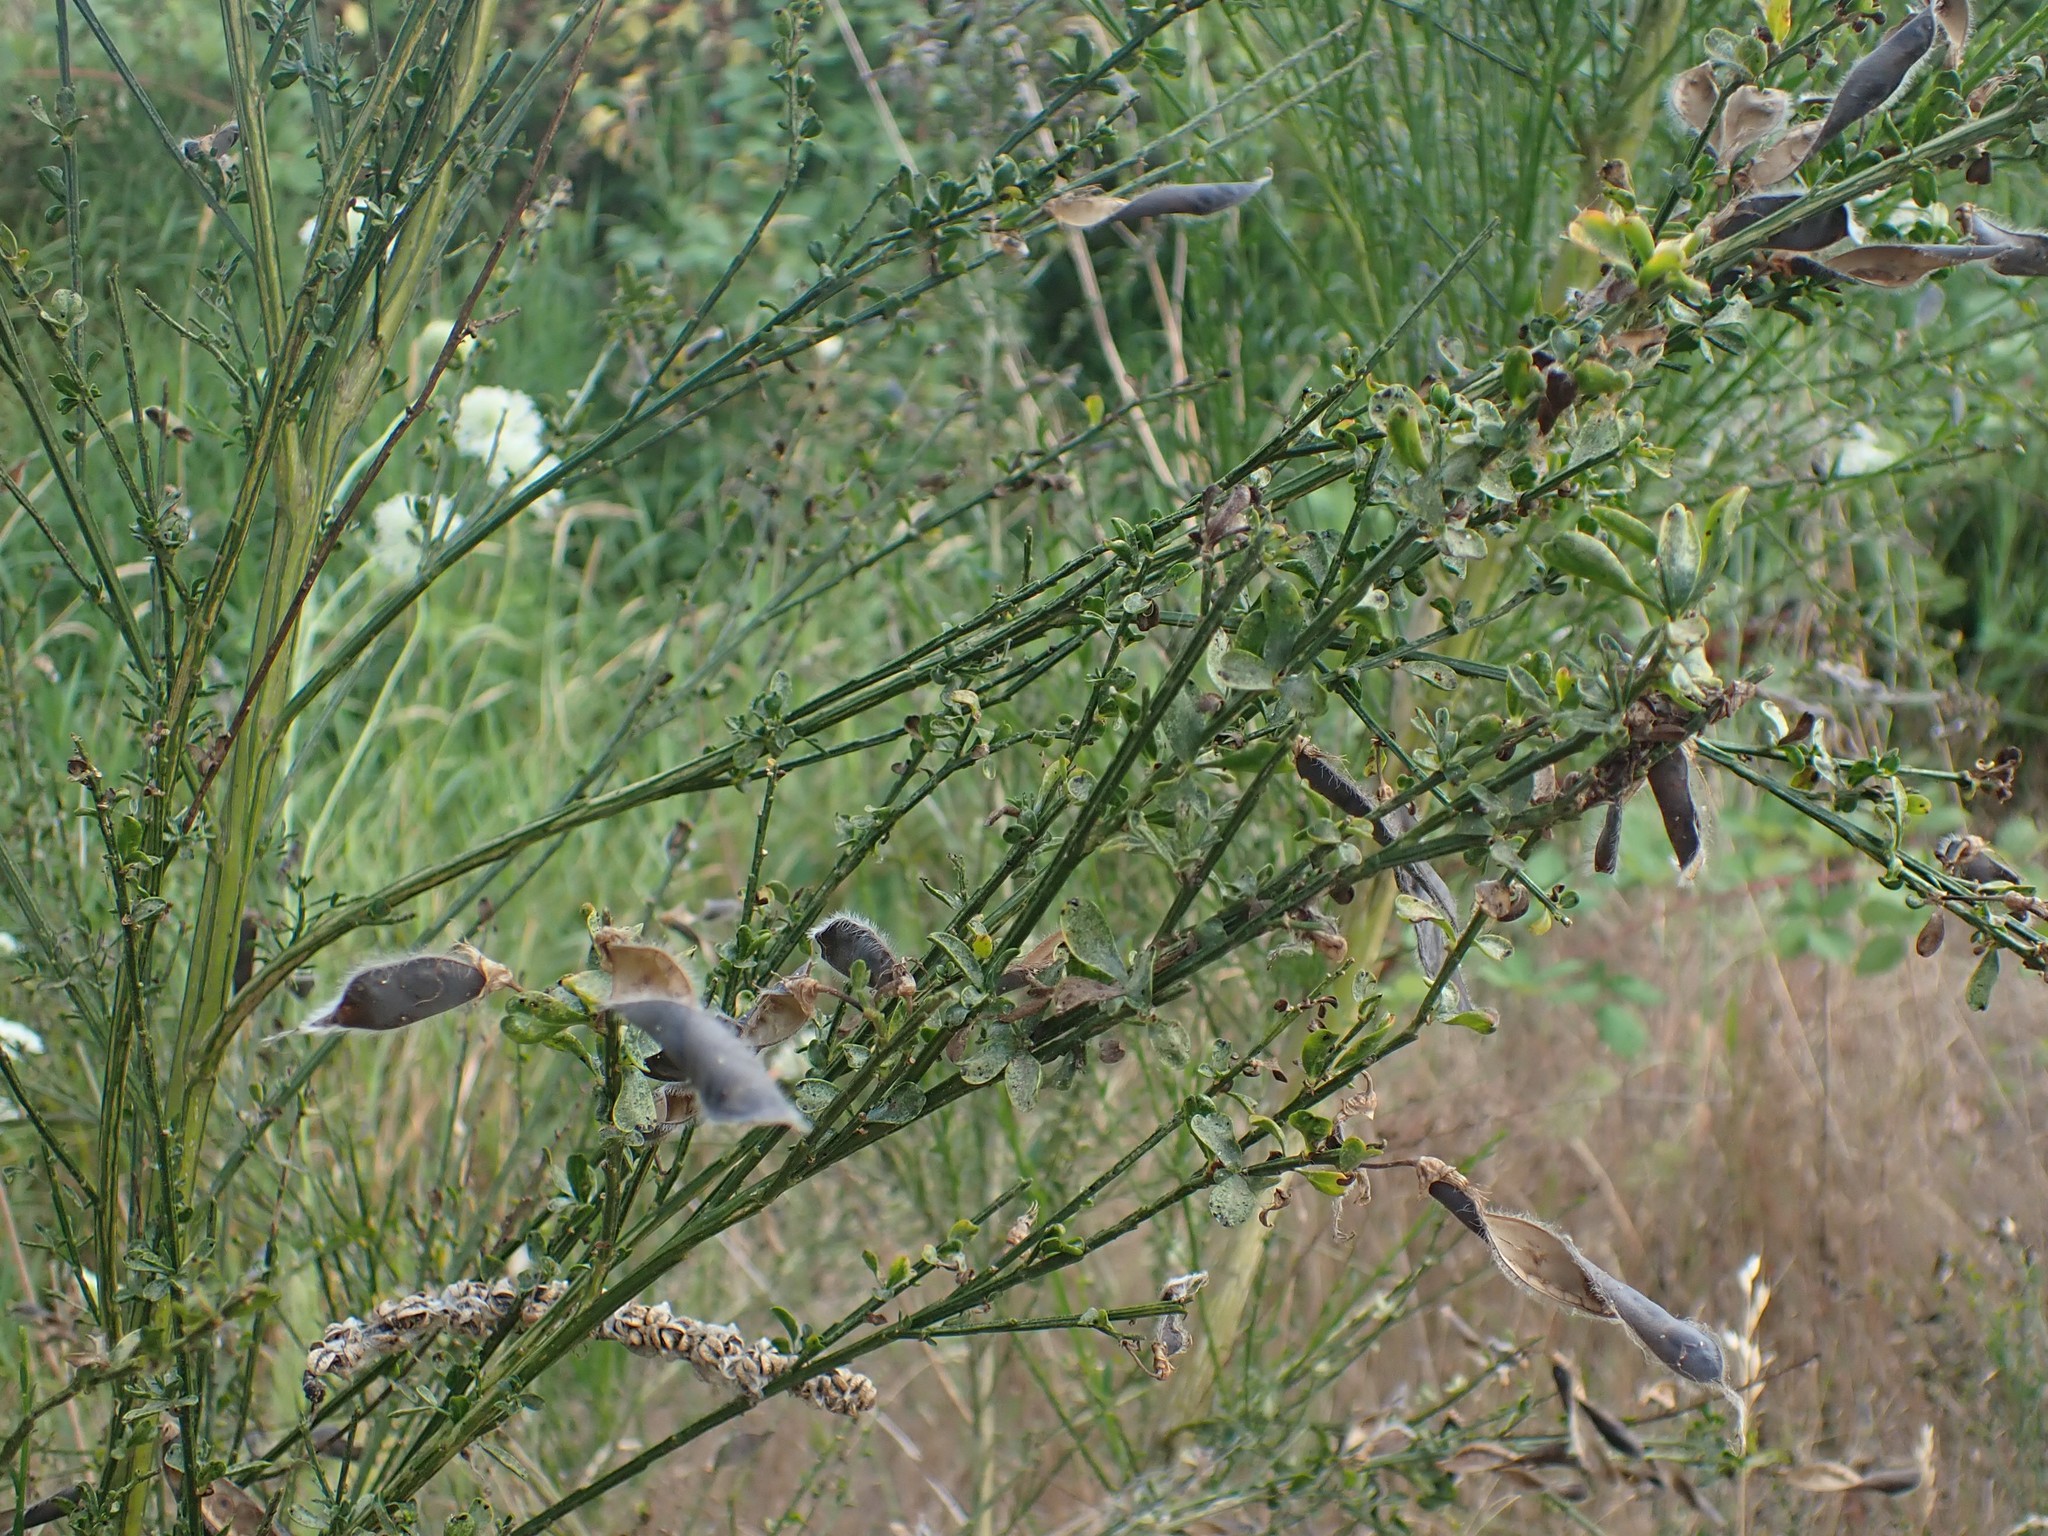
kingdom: Plantae
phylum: Tracheophyta
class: Magnoliopsida
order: Fabales
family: Fabaceae
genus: Cytisus
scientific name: Cytisus scoparius
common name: Scotch broom
